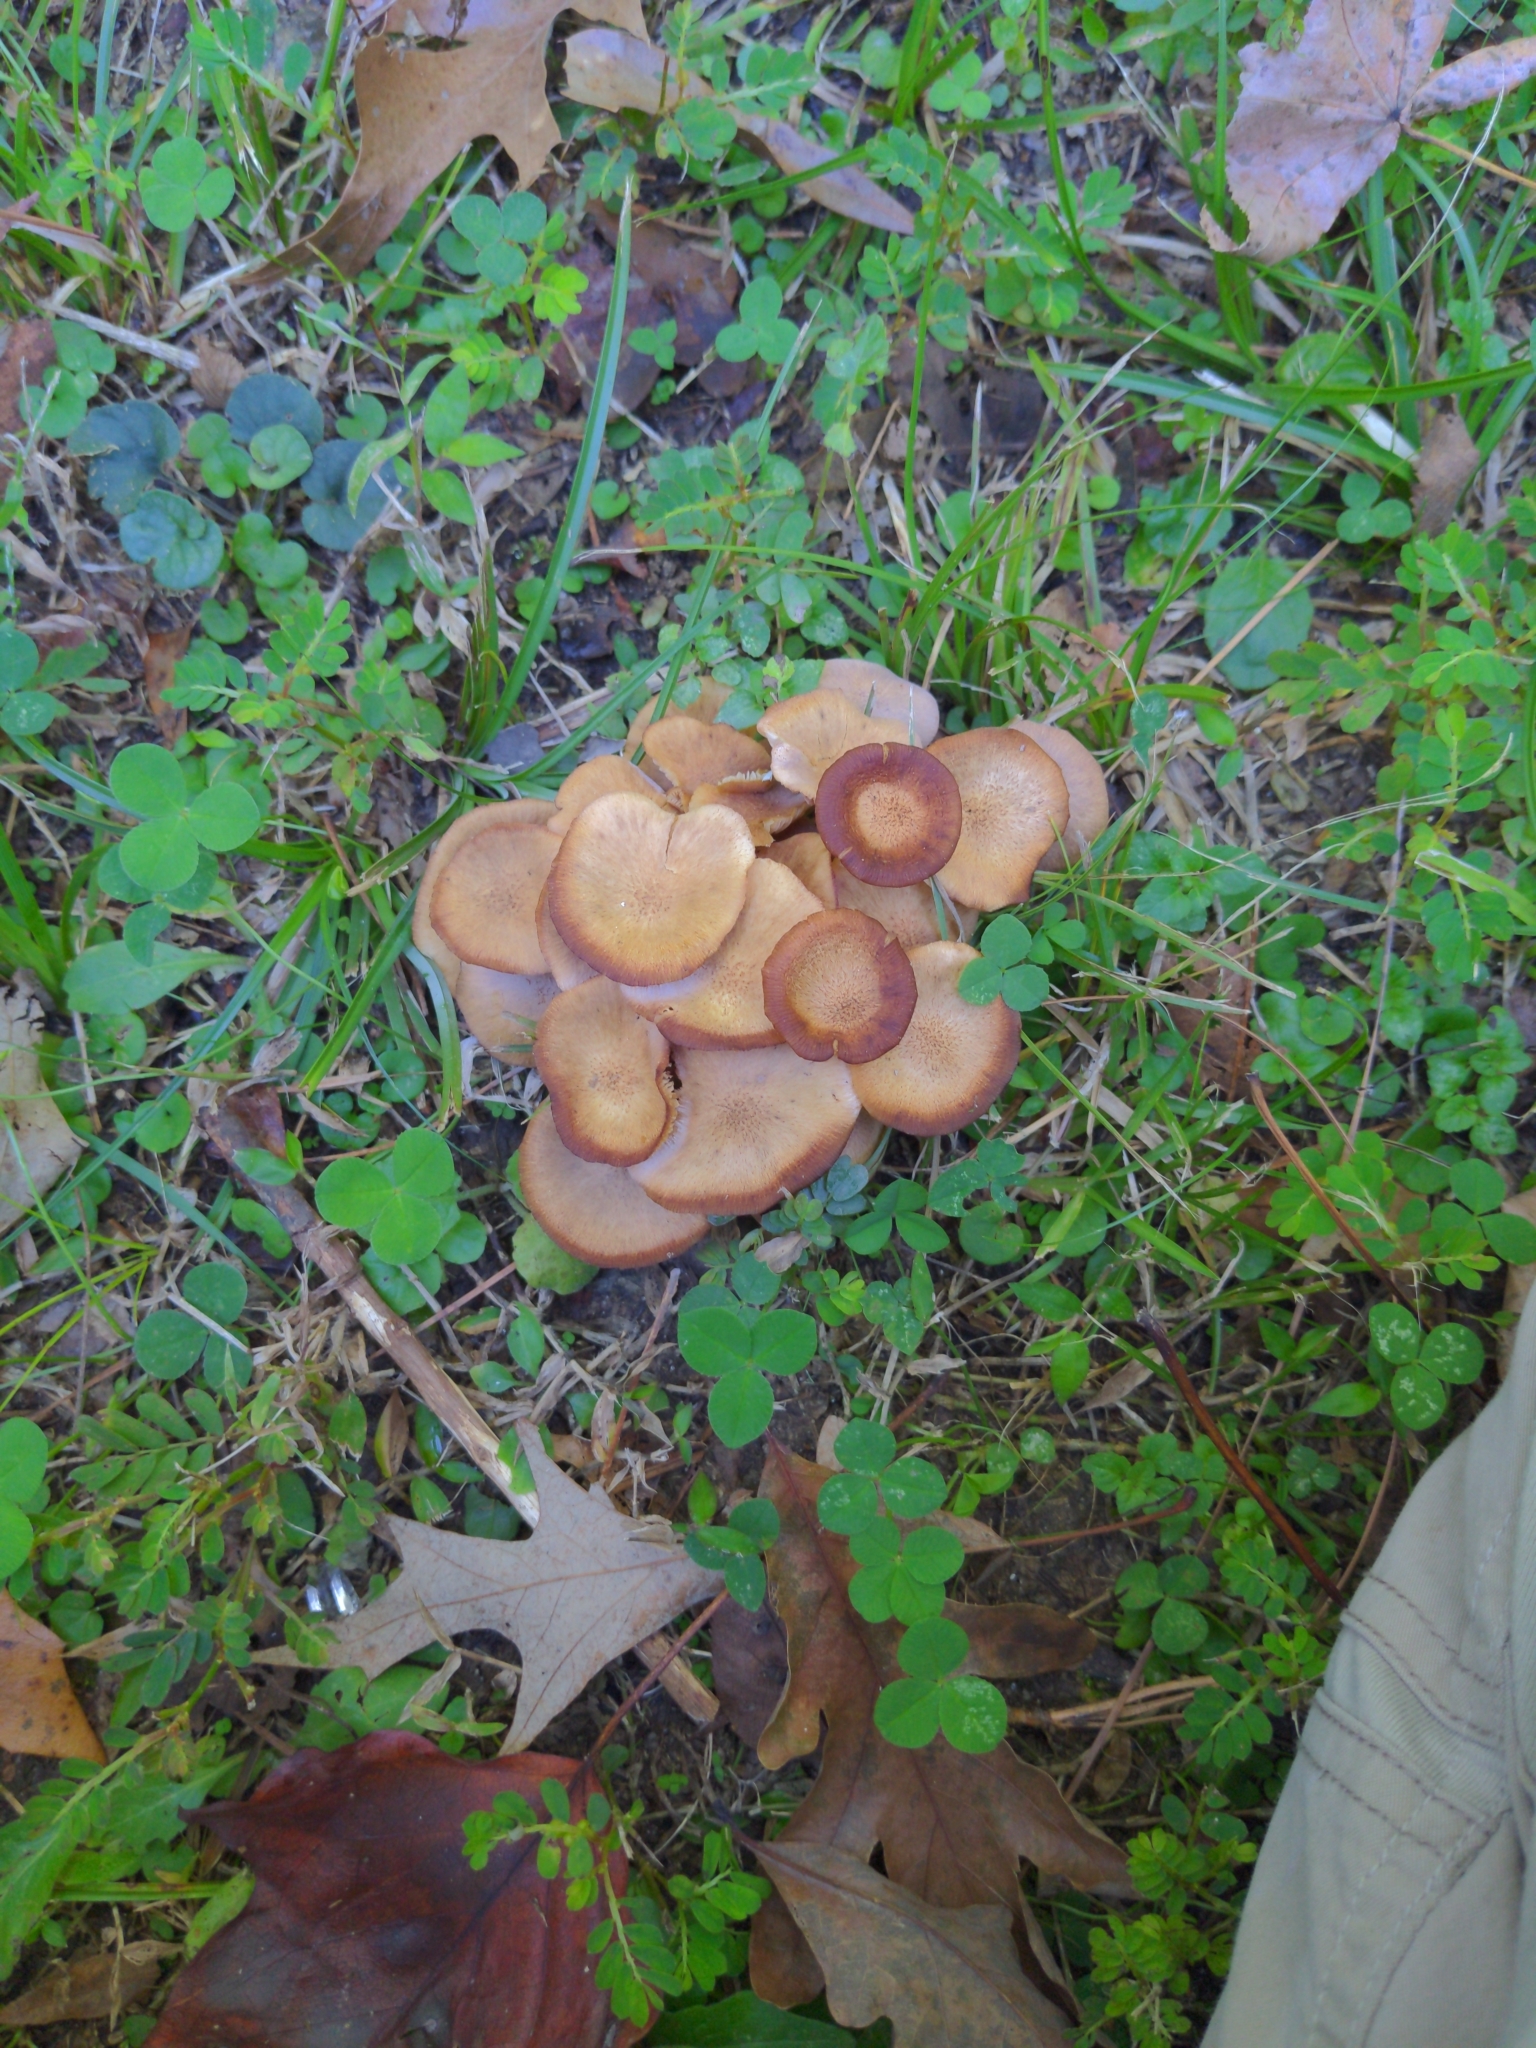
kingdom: Fungi
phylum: Basidiomycota
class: Agaricomycetes
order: Agaricales
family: Physalacriaceae
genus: Desarmillaria
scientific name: Desarmillaria caespitosa
